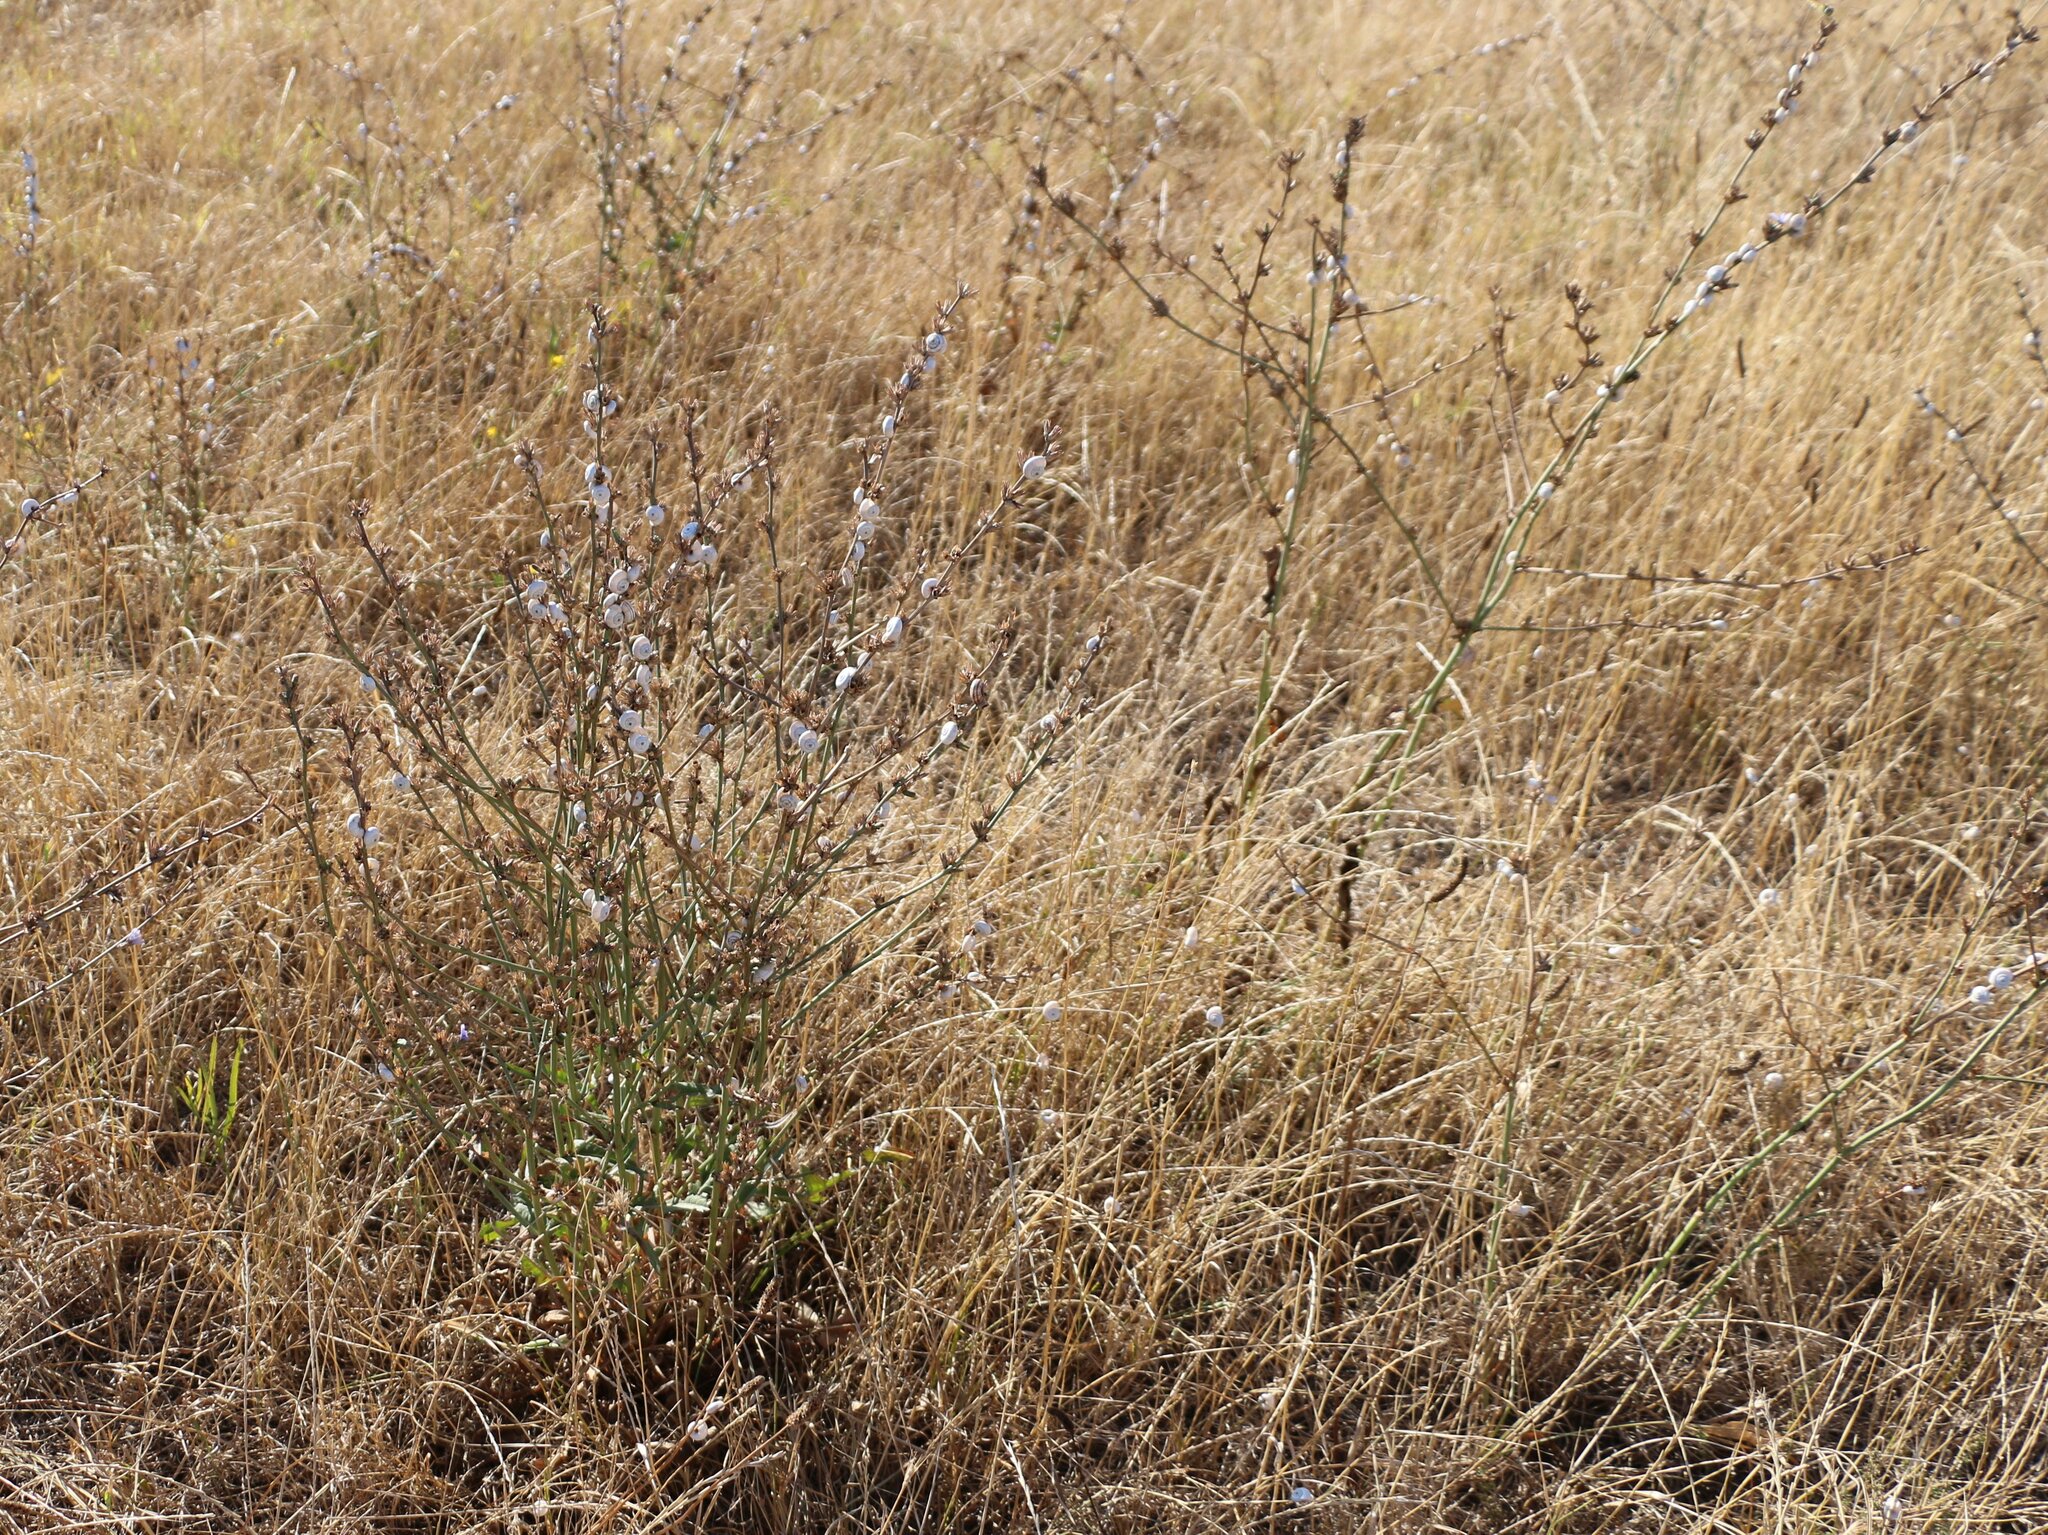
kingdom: Animalia
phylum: Mollusca
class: Gastropoda
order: Stylommatophora
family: Geomitridae
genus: Xeropicta
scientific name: Xeropicta derbentina
